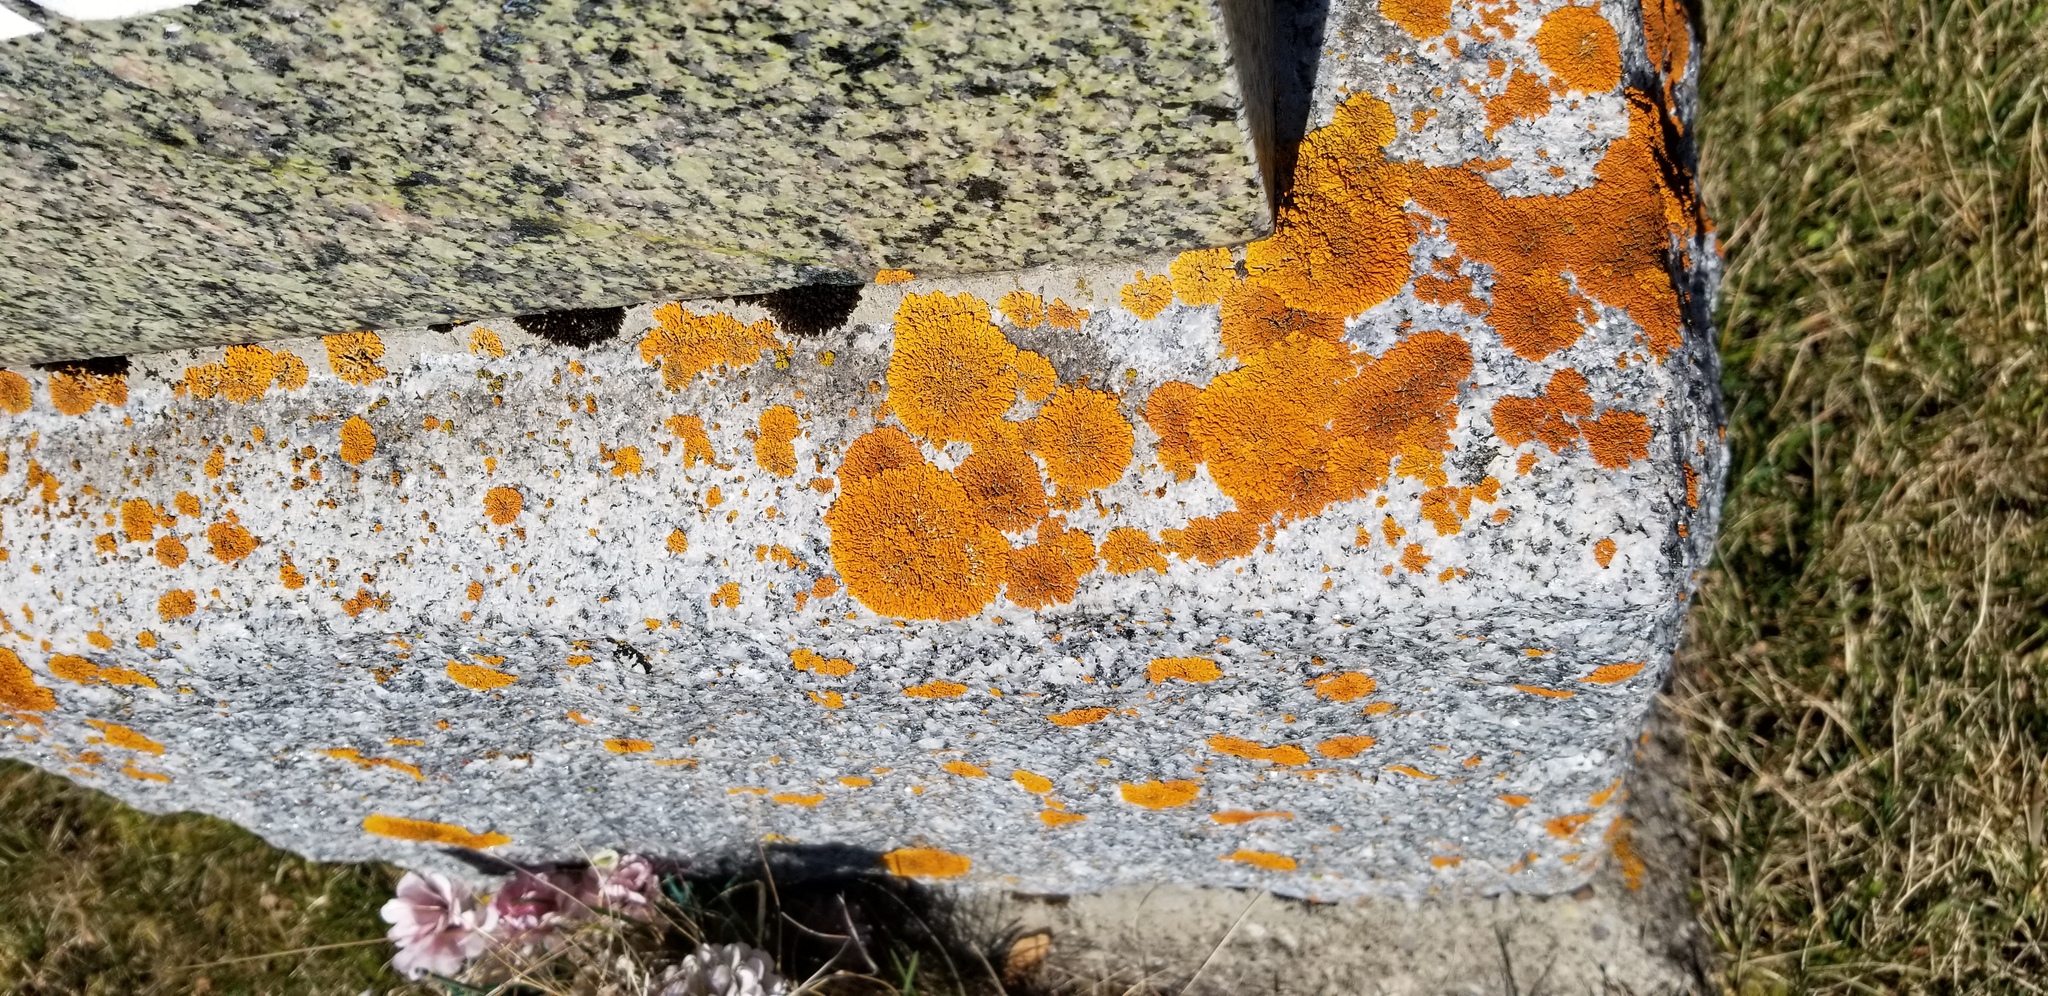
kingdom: Fungi
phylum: Ascomycota
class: Lecanoromycetes
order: Teloschistales
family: Teloschistaceae
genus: Xanthoria
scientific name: Xanthoria elegans
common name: Elegant sunburst lichen
